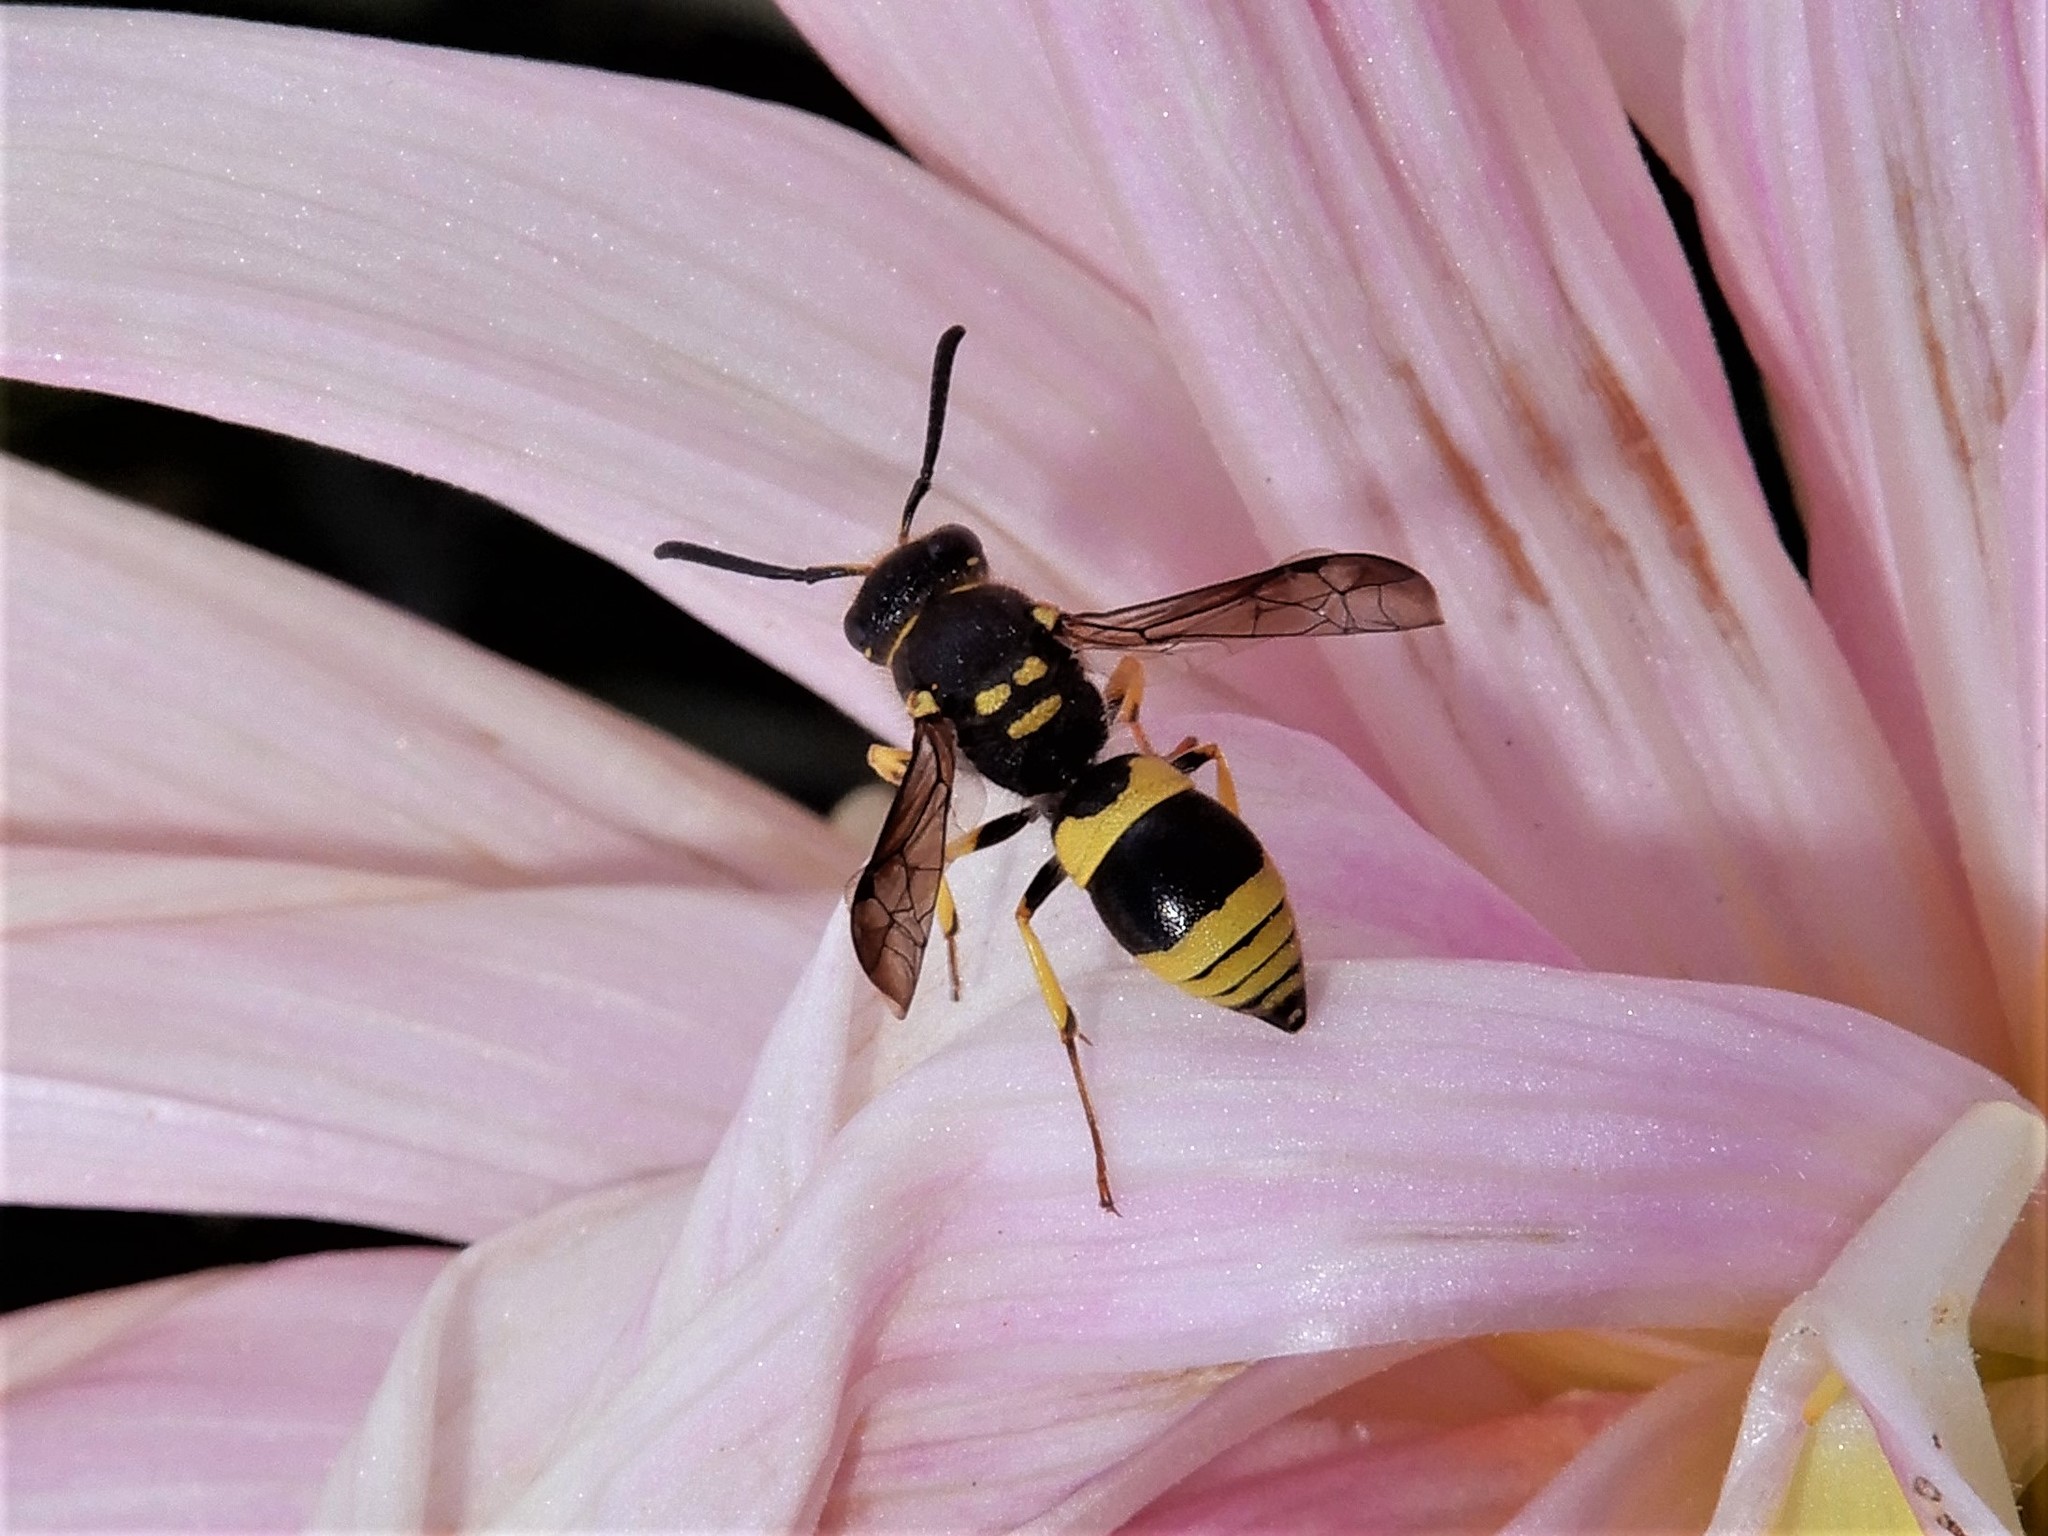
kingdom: Animalia
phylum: Arthropoda
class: Insecta
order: Hymenoptera
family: Vespidae
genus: Ancistrocerus
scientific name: Ancistrocerus gazella
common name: European tube wasp
